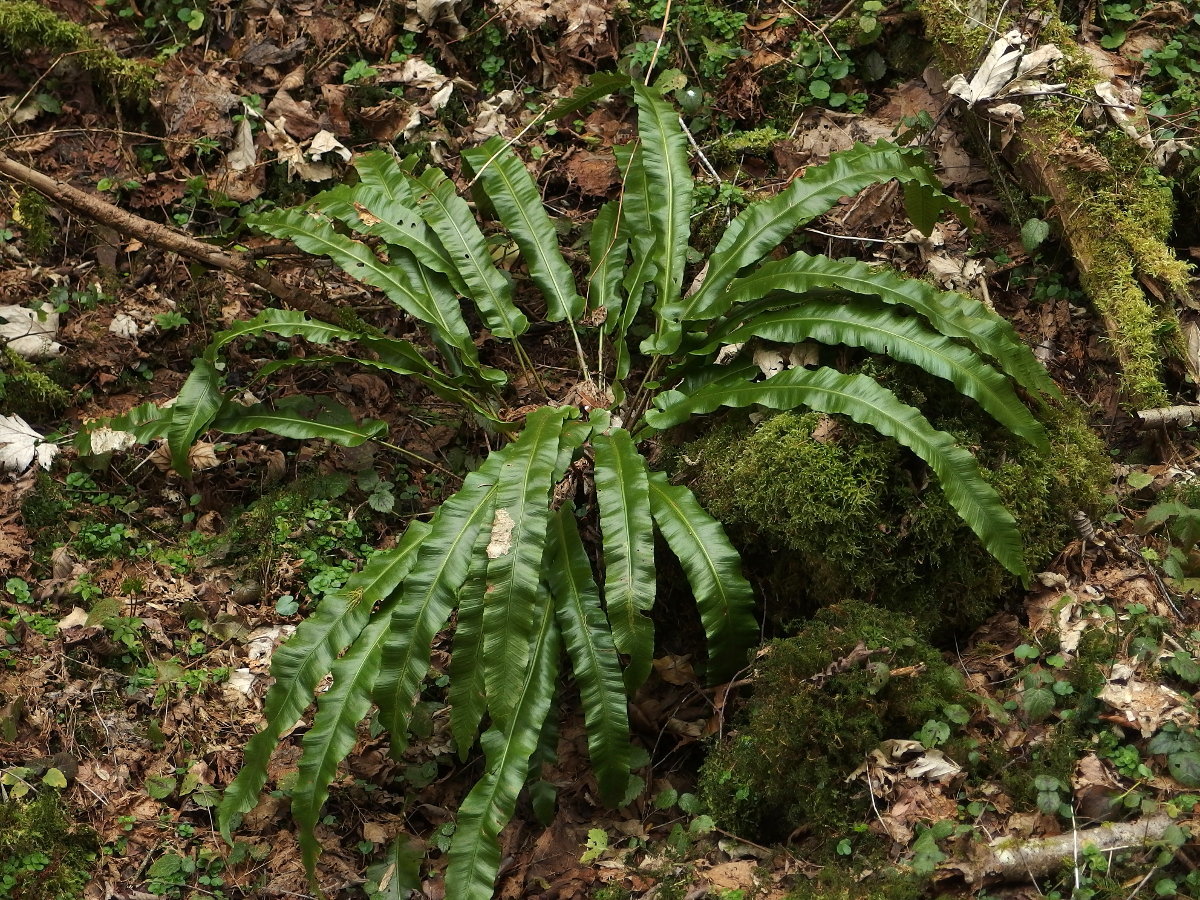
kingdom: Plantae
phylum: Tracheophyta
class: Polypodiopsida
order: Polypodiales
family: Aspleniaceae
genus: Asplenium
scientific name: Asplenium scolopendrium
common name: Hart's-tongue fern
